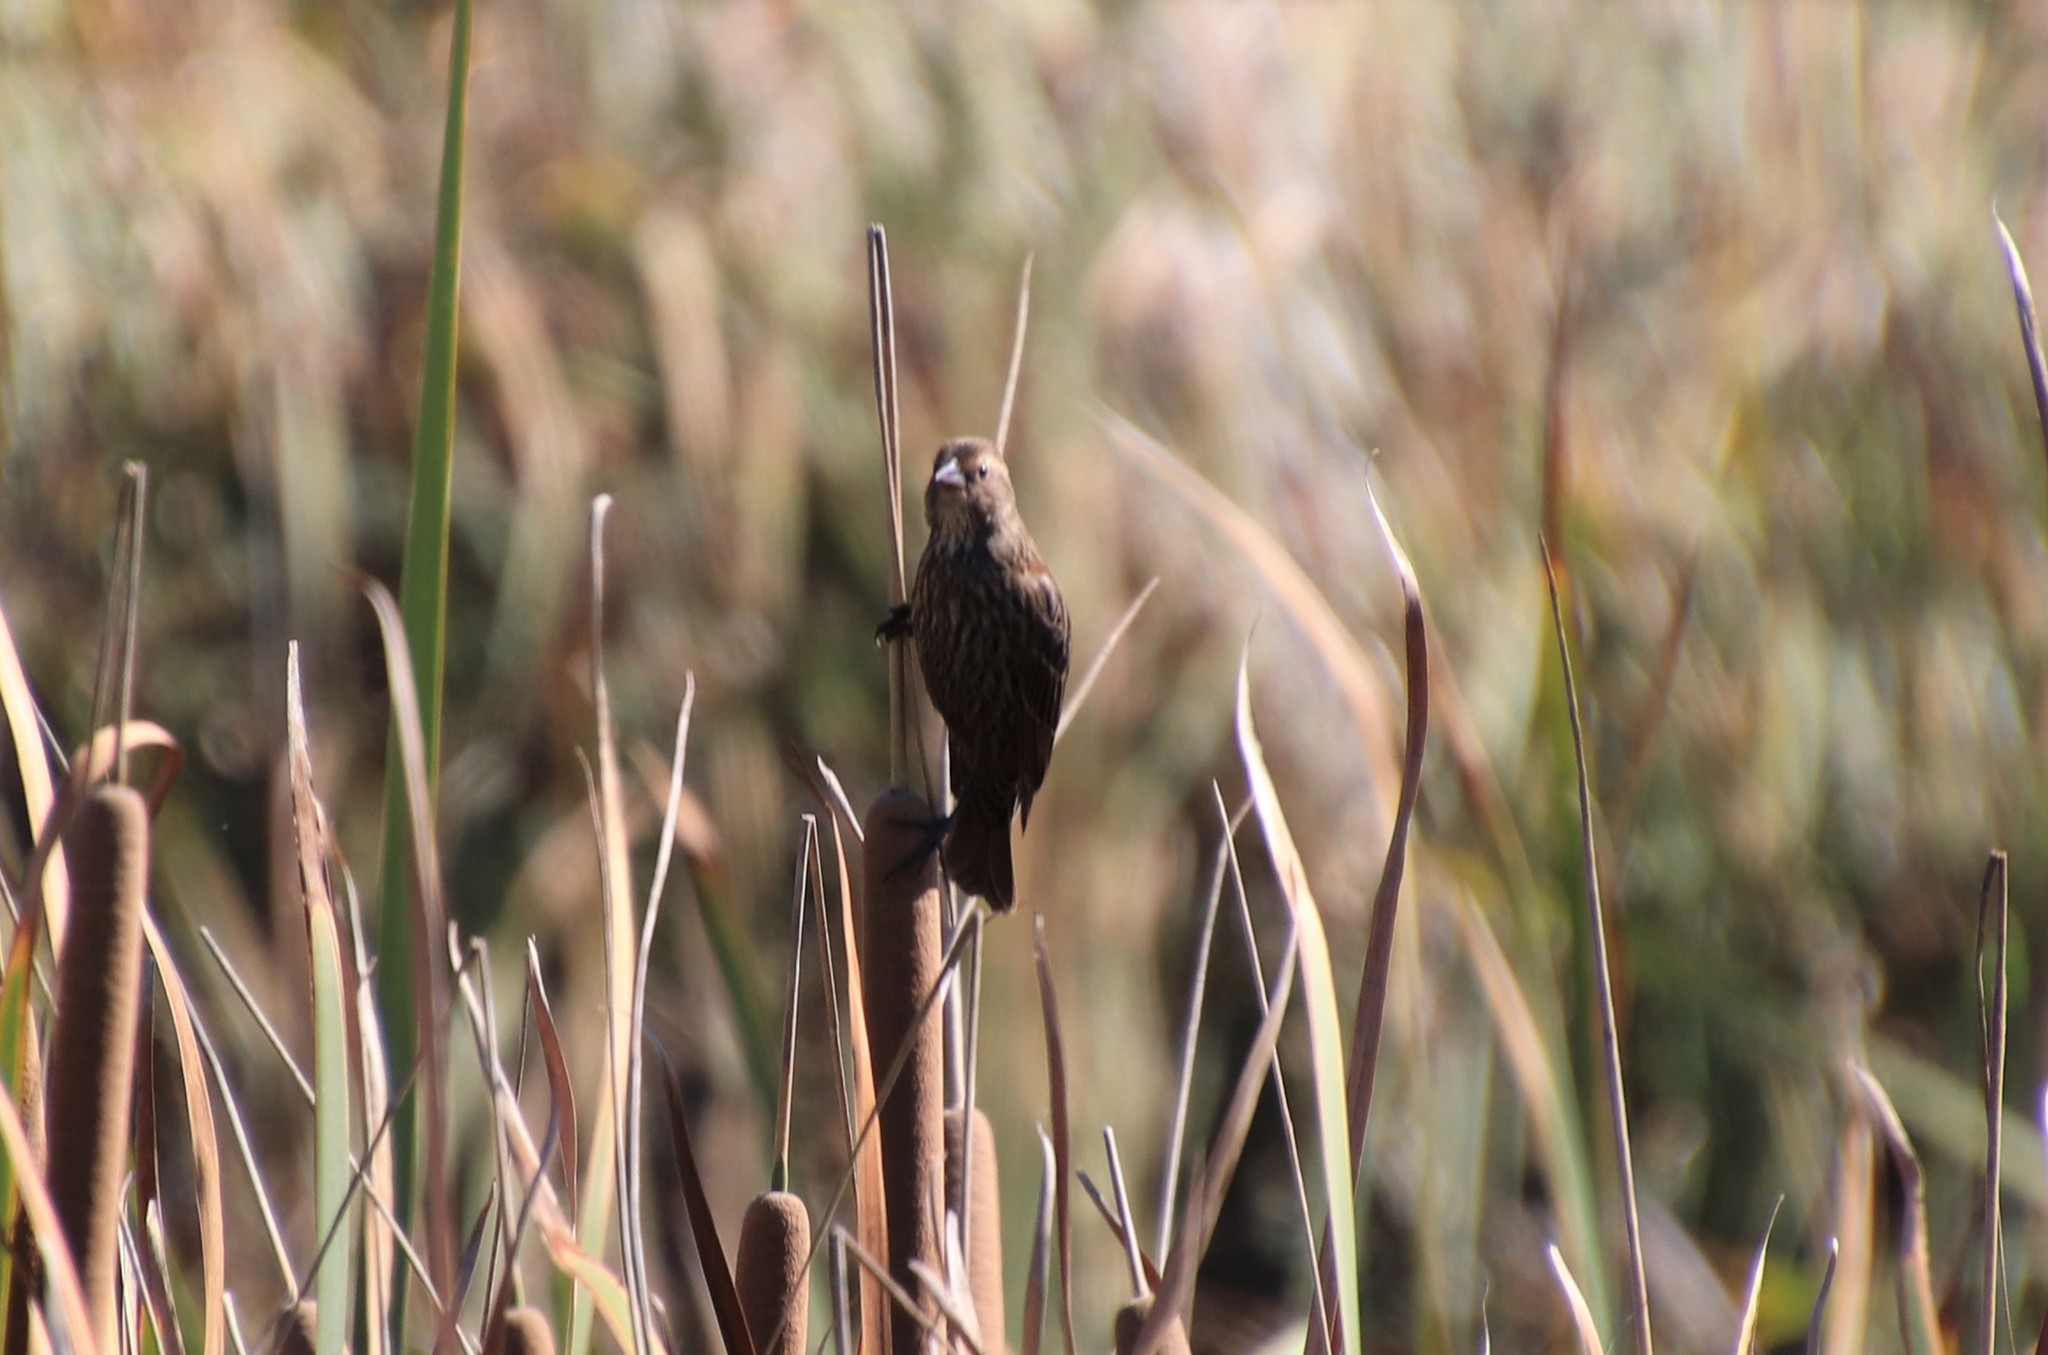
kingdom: Animalia
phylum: Chordata
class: Aves
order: Passeriformes
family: Icteridae
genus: Agelaius
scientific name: Agelaius phoeniceus
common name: Red-winged blackbird
